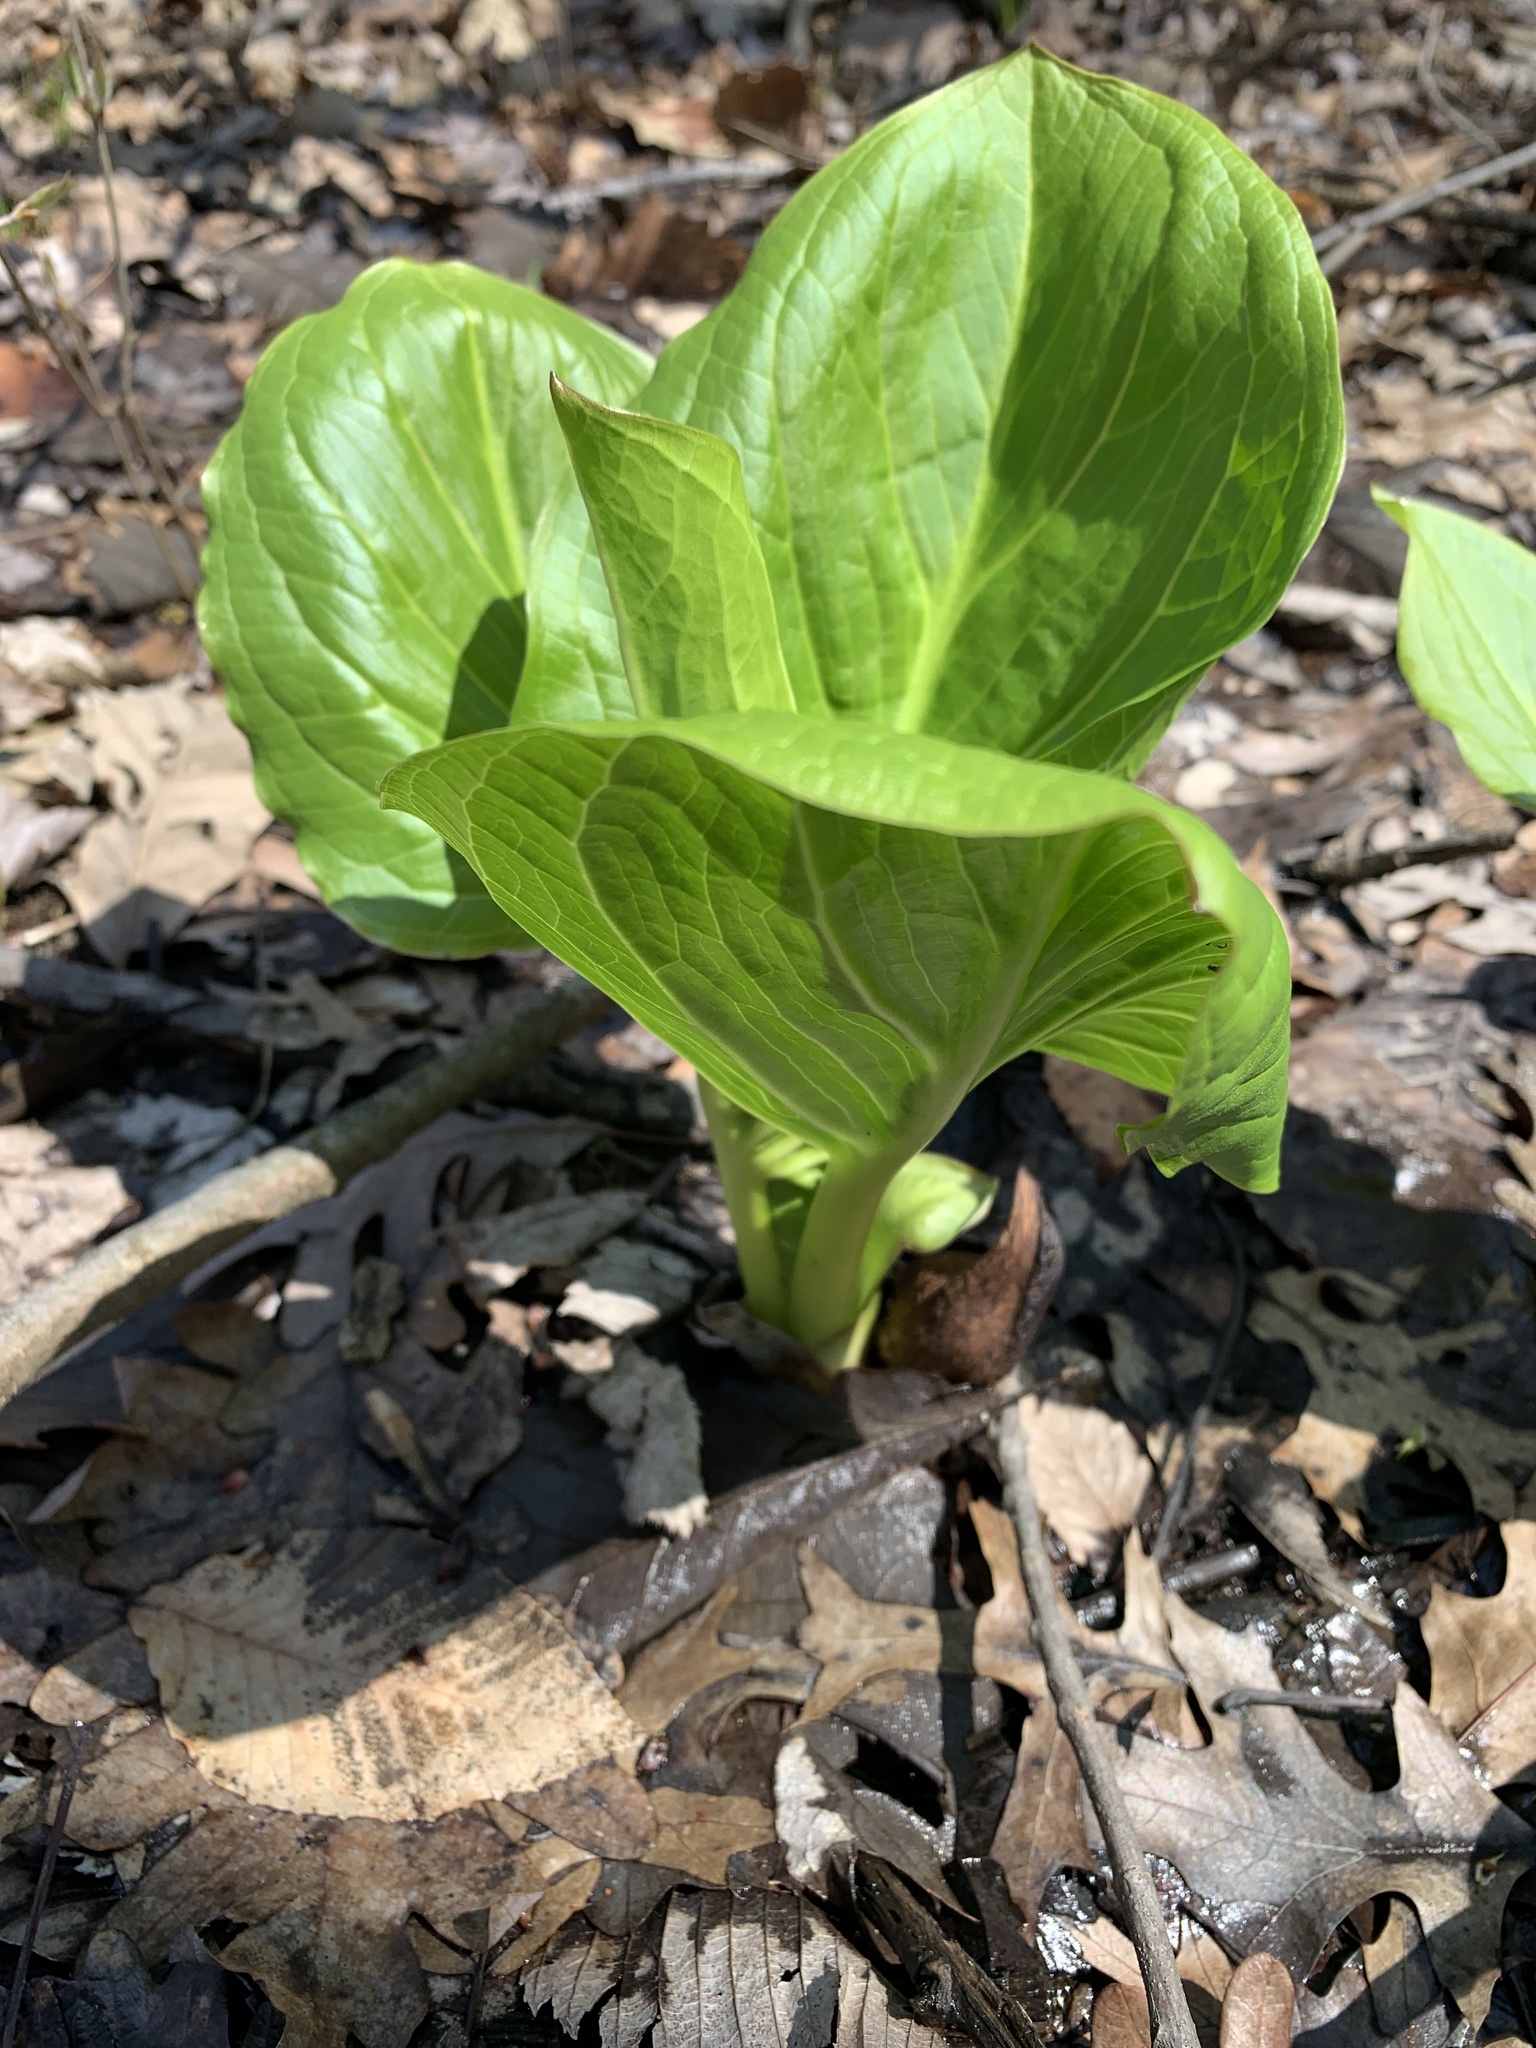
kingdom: Plantae
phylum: Tracheophyta
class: Liliopsida
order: Alismatales
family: Araceae
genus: Symplocarpus
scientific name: Symplocarpus foetidus
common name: Eastern skunk cabbage
